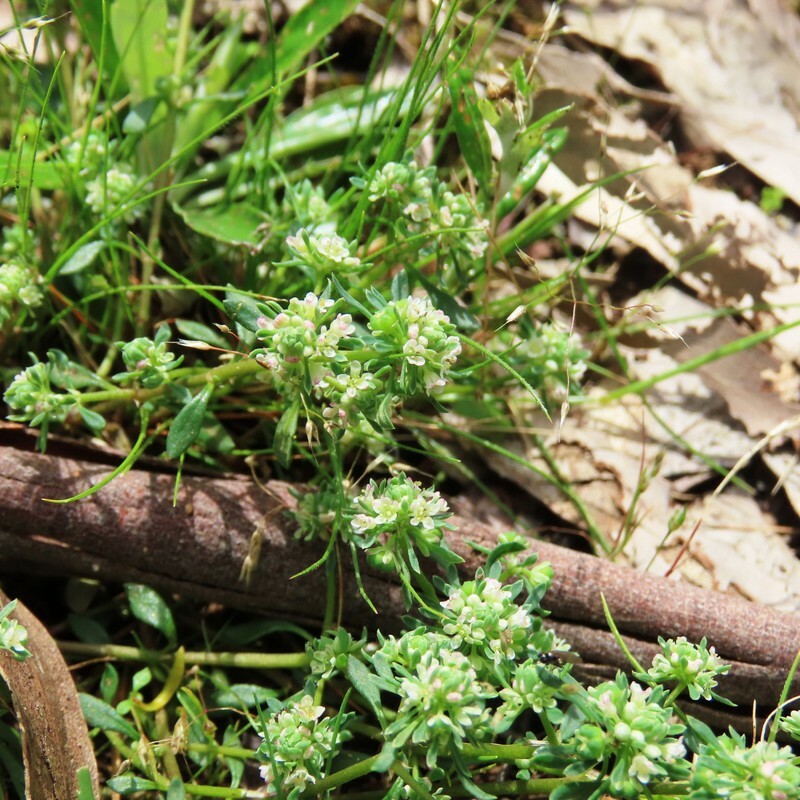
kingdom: Plantae
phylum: Tracheophyta
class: Magnoliopsida
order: Malpighiales
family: Phyllanthaceae
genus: Poranthera
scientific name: Poranthera microphylla
